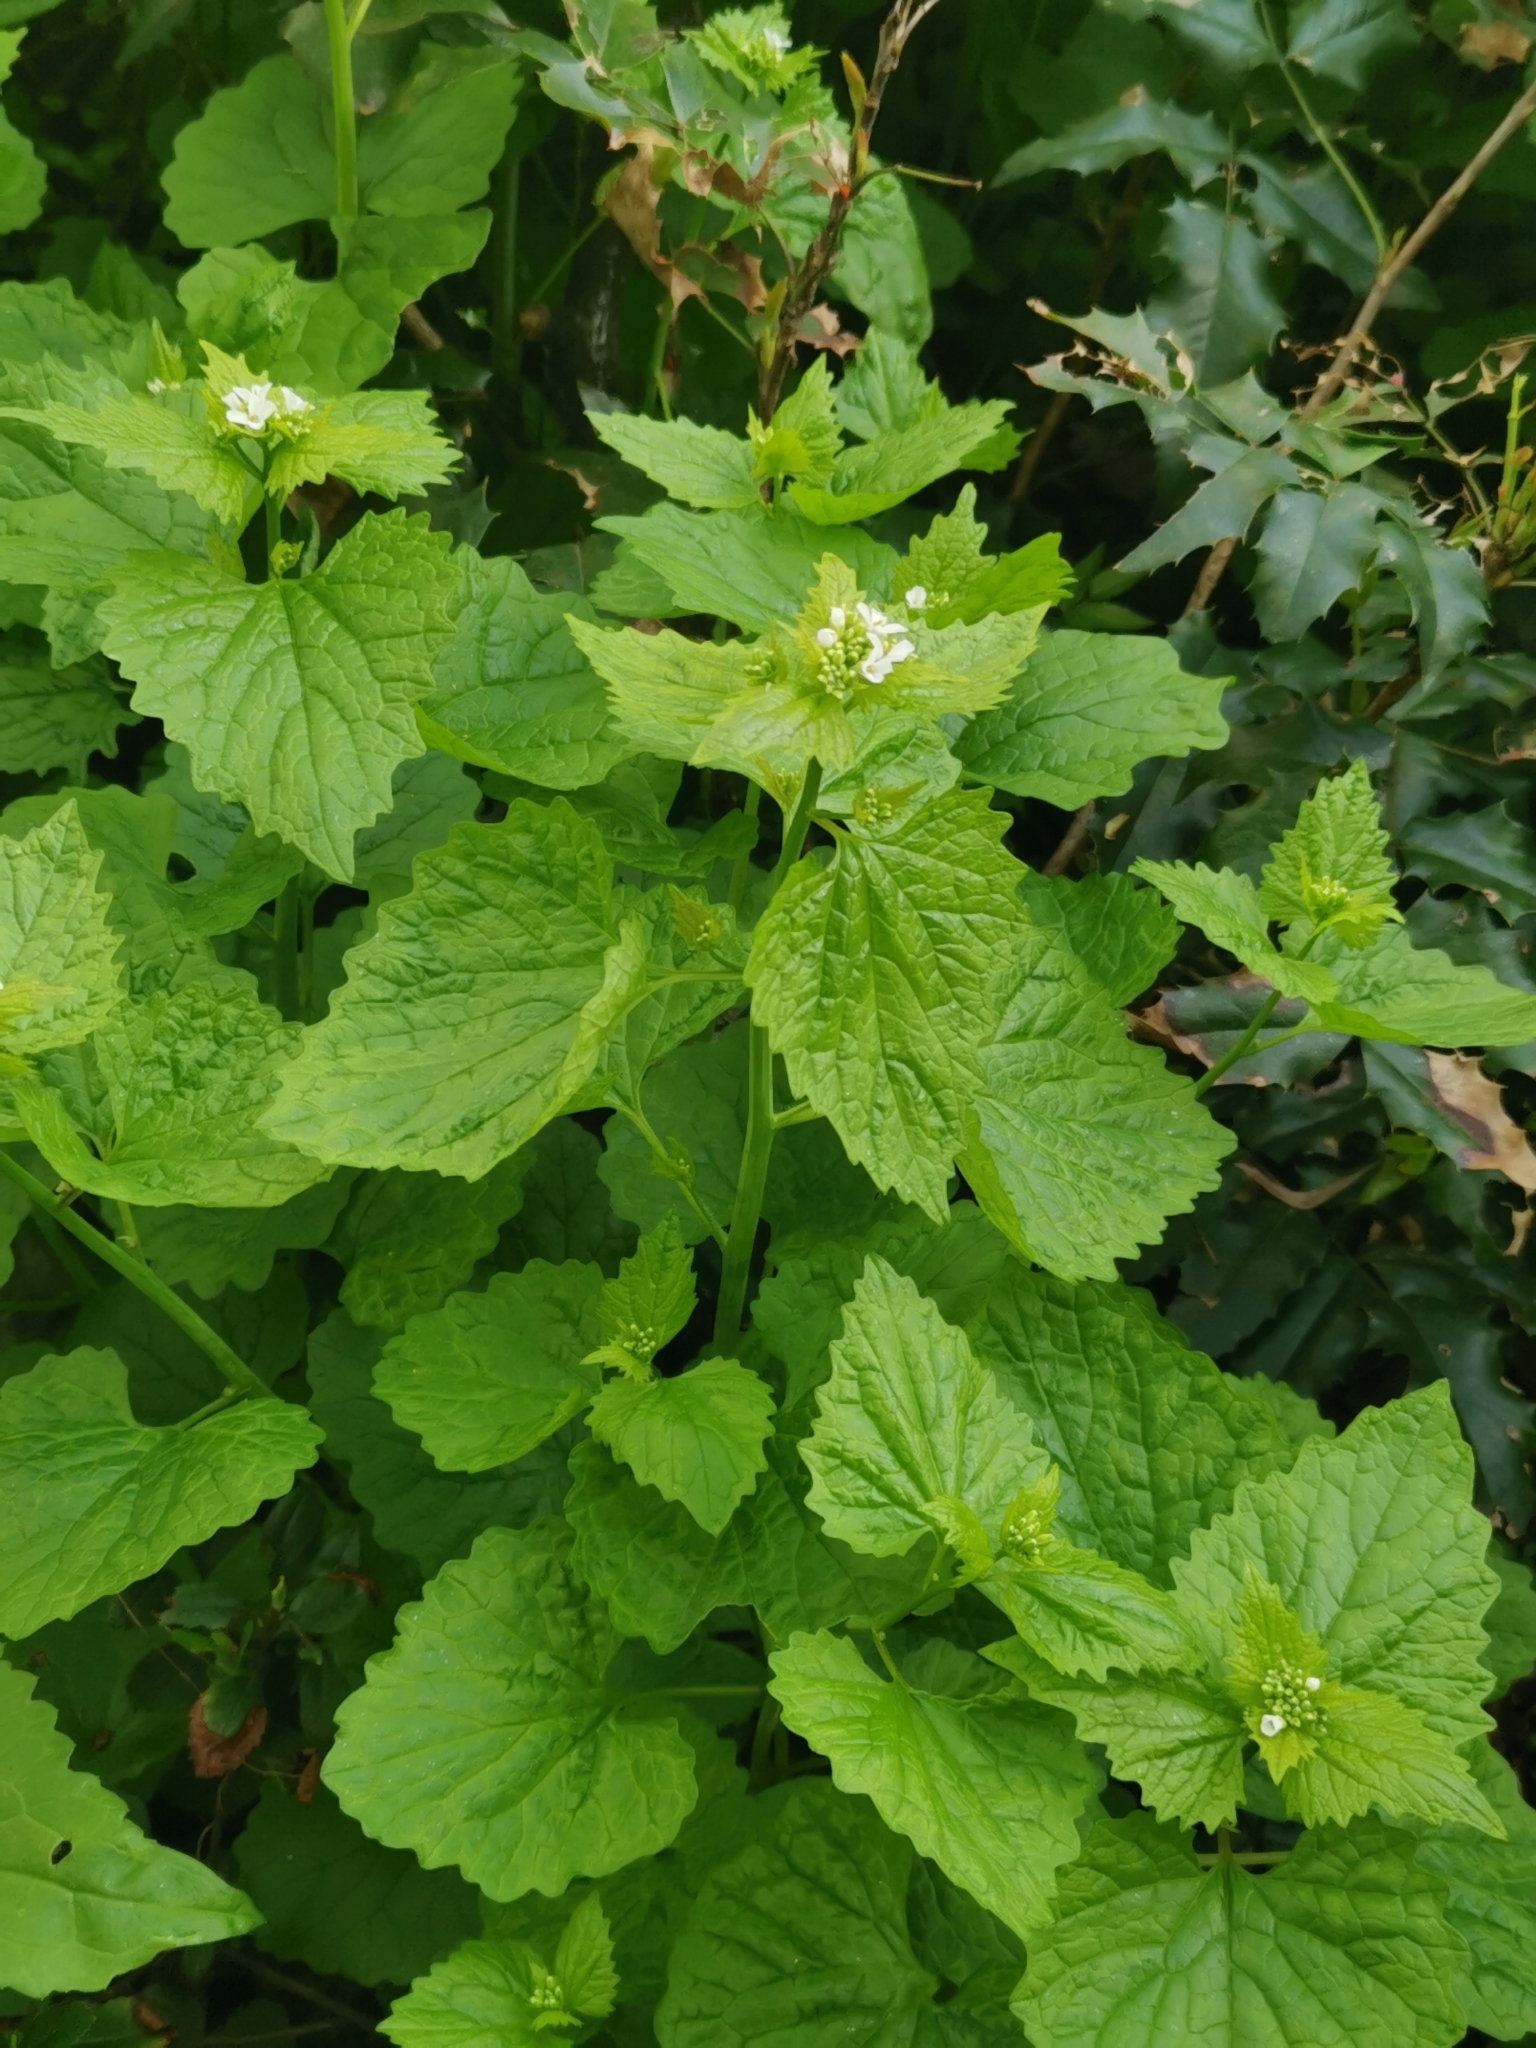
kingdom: Plantae
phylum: Tracheophyta
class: Magnoliopsida
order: Brassicales
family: Brassicaceae
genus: Alliaria
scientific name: Alliaria petiolata
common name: Garlic mustard
